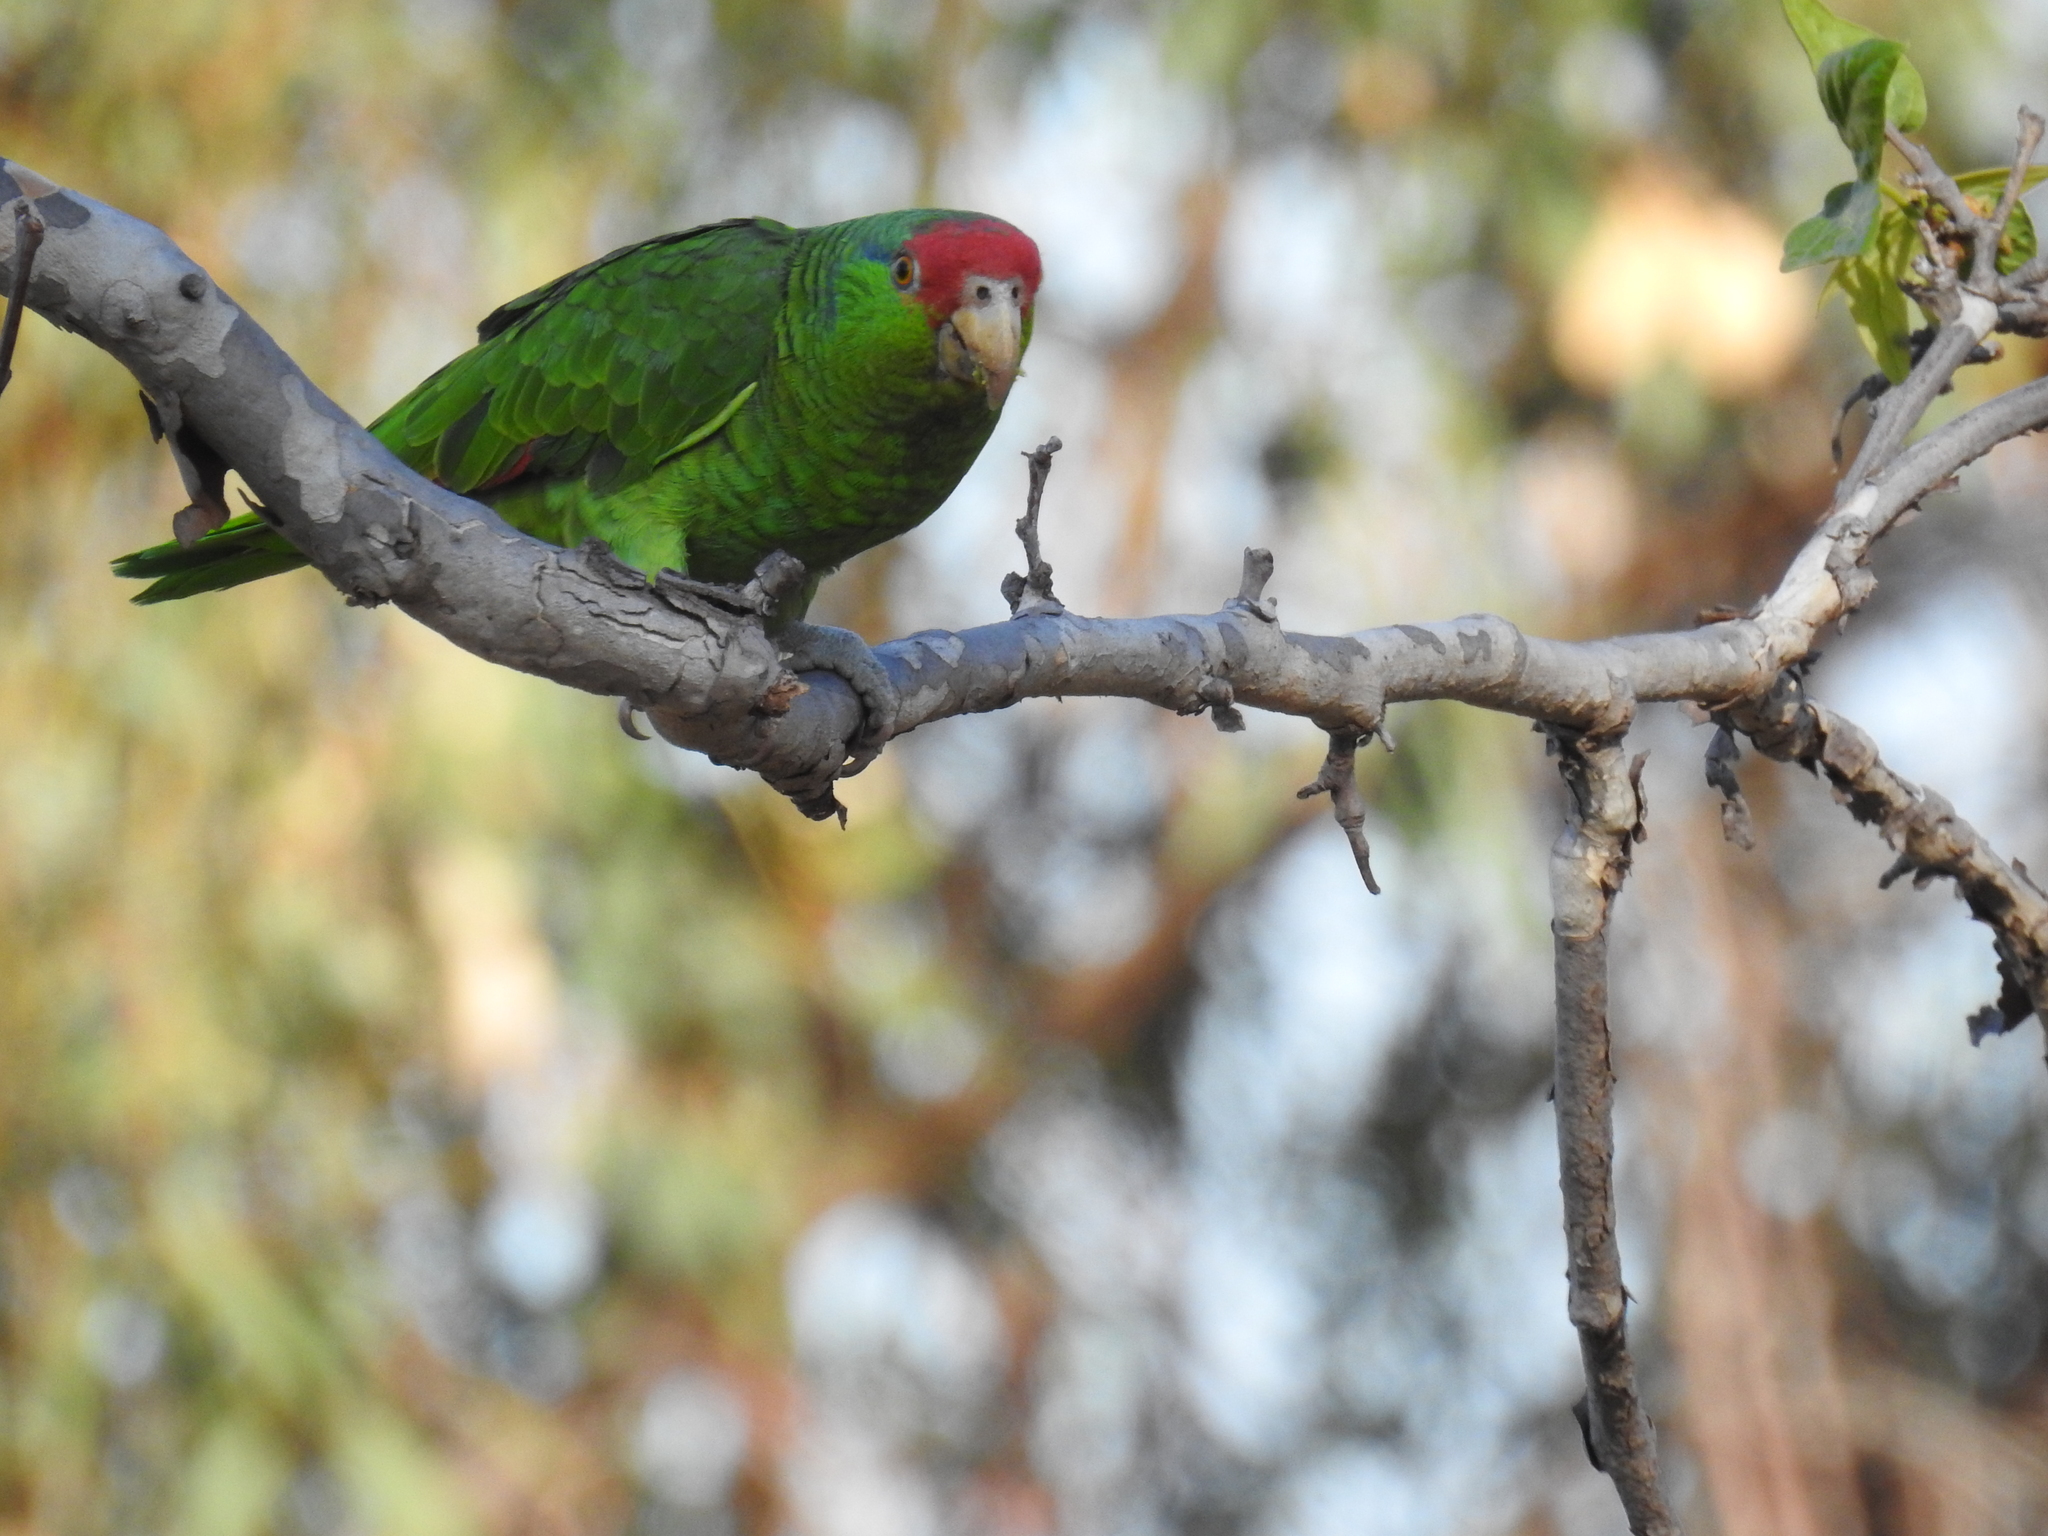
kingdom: Animalia
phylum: Chordata
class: Aves
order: Psittaciformes
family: Psittacidae
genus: Amazona
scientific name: Amazona viridigenalis
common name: Red-crowned amazon
